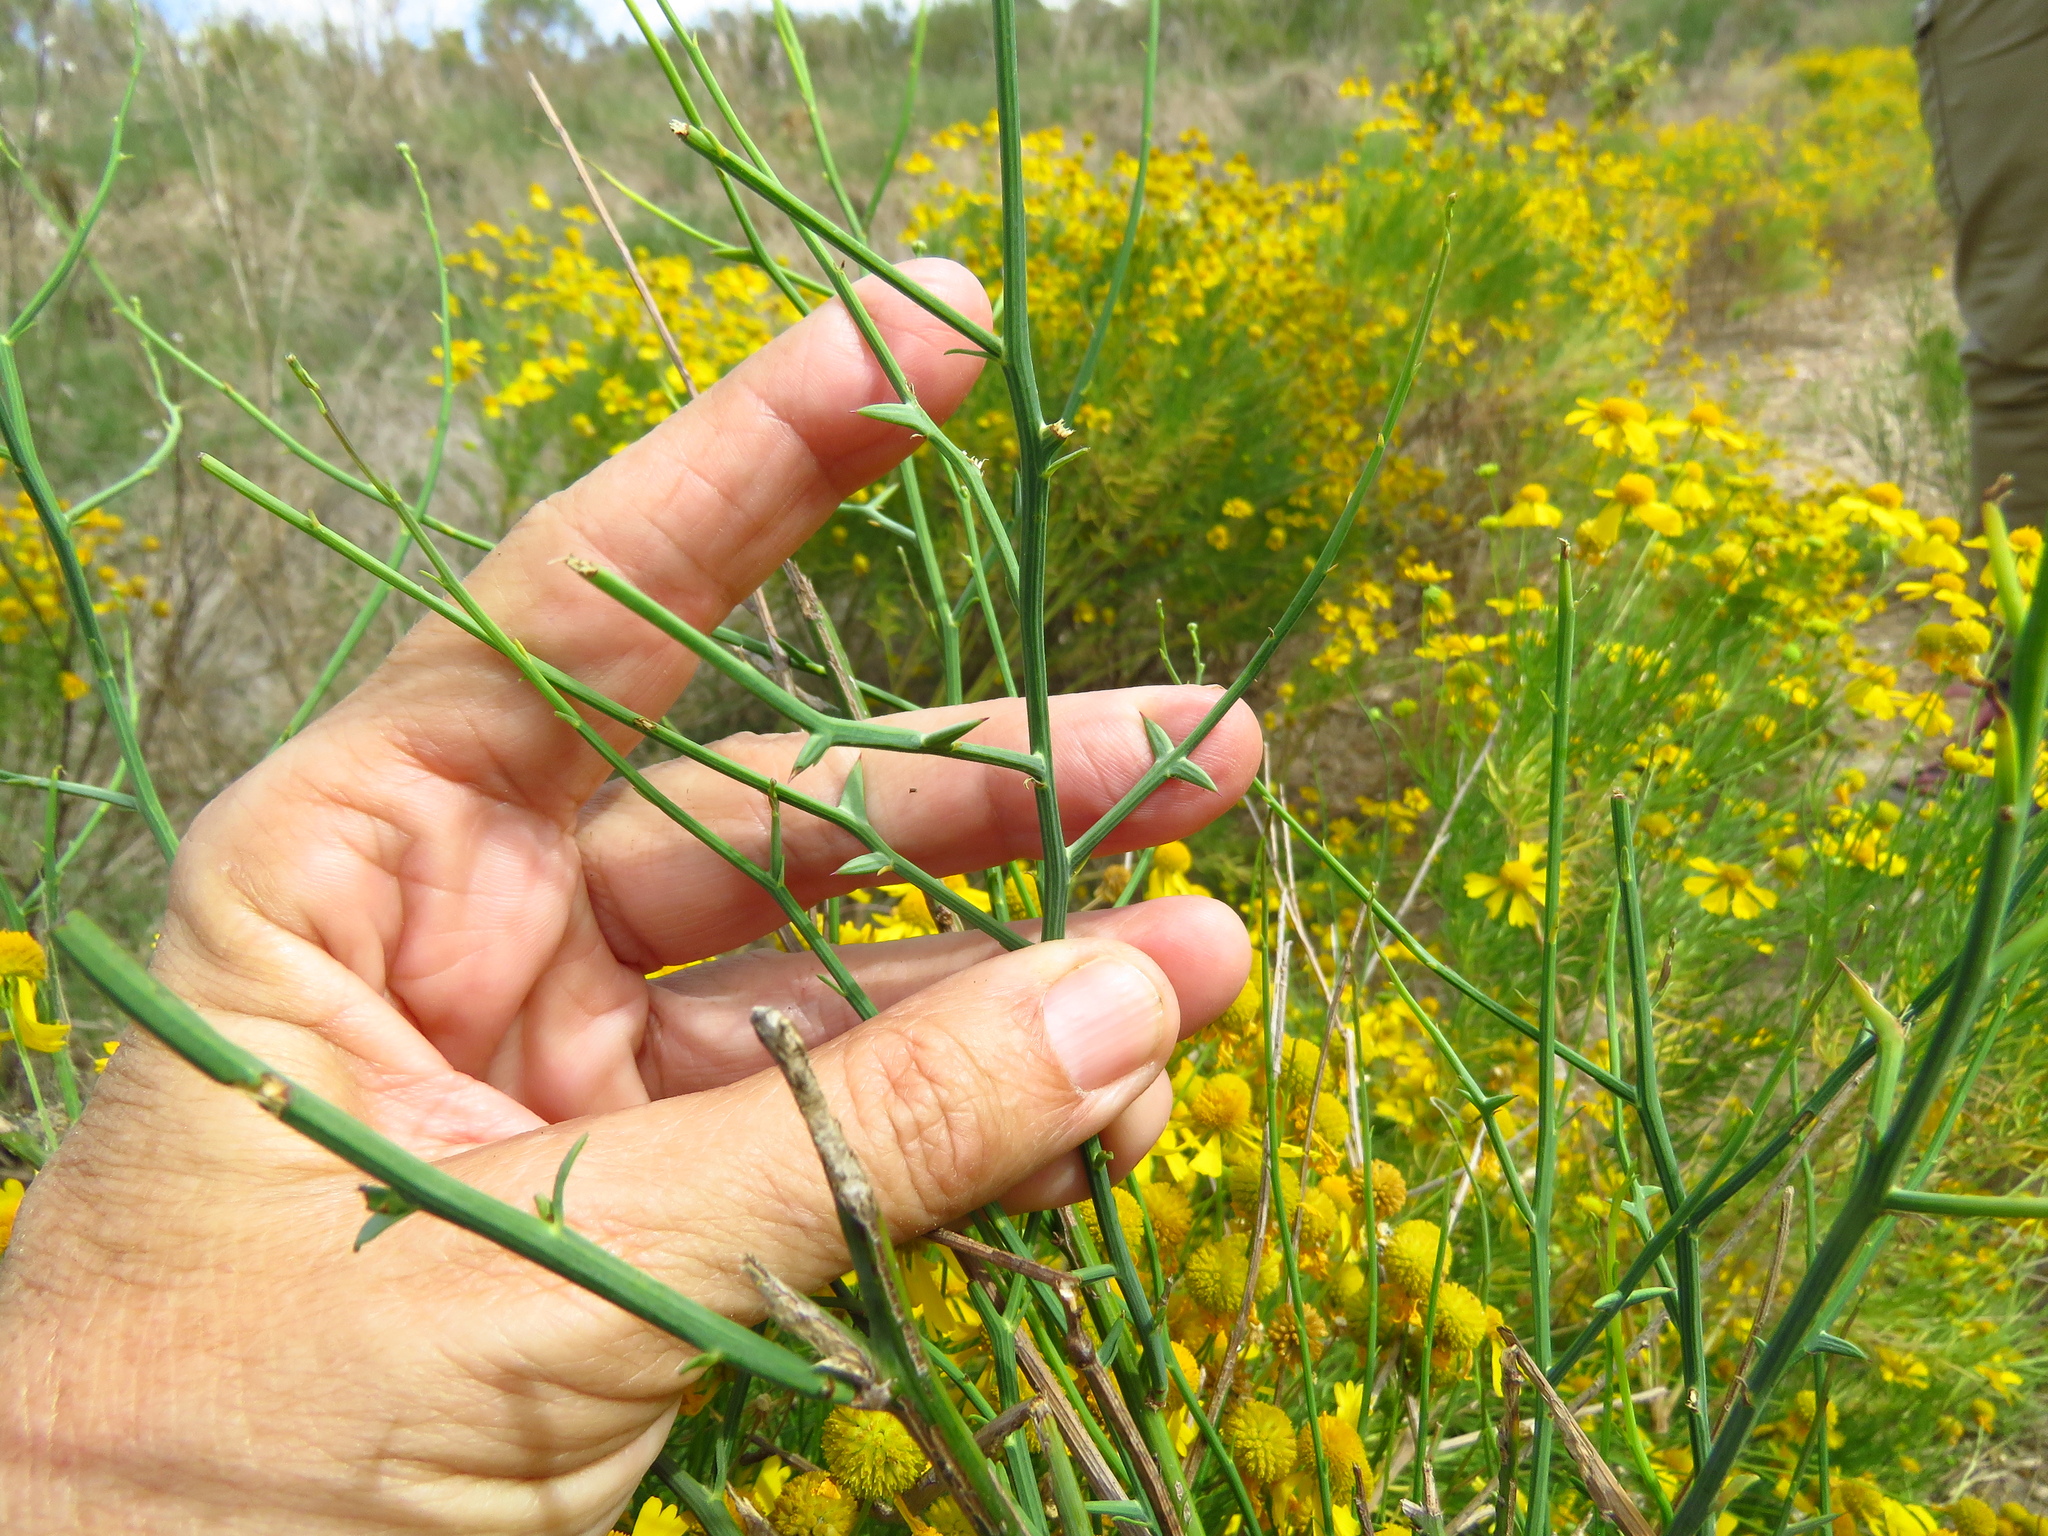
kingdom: Plantae
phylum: Tracheophyta
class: Magnoliopsida
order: Asterales
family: Asteraceae
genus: Chloracantha
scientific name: Chloracantha spinosa
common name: Mexican devilweed
